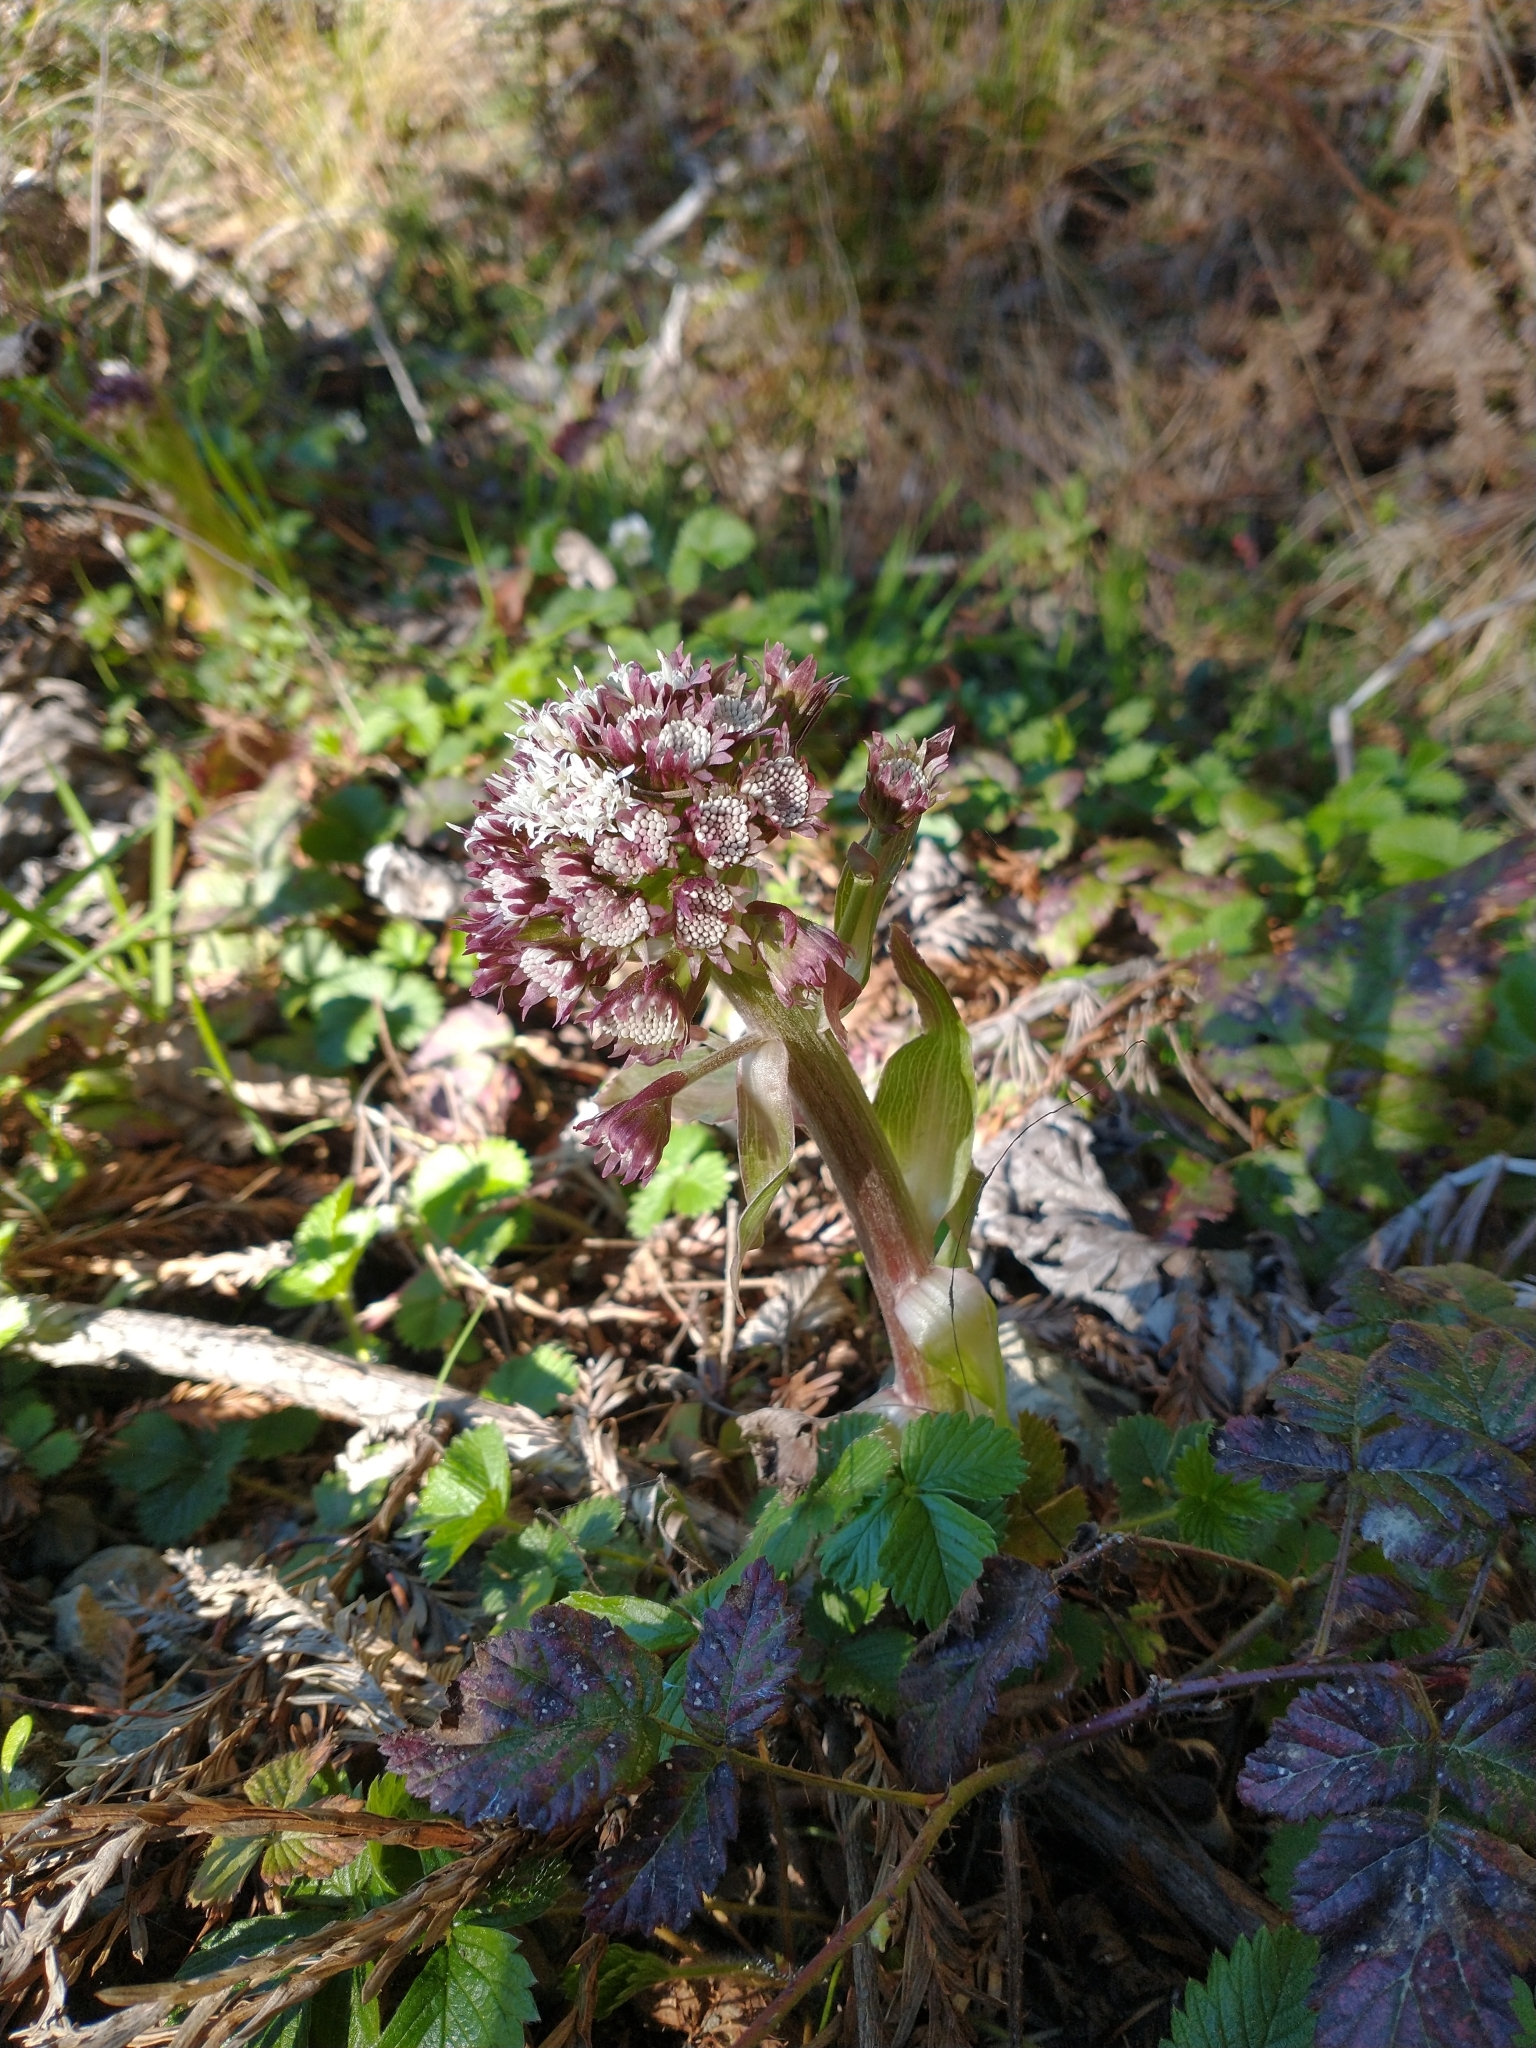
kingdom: Plantae
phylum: Tracheophyta
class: Magnoliopsida
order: Asterales
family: Asteraceae
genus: Petasites
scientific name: Petasites frigidus
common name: Arctic butterbur
